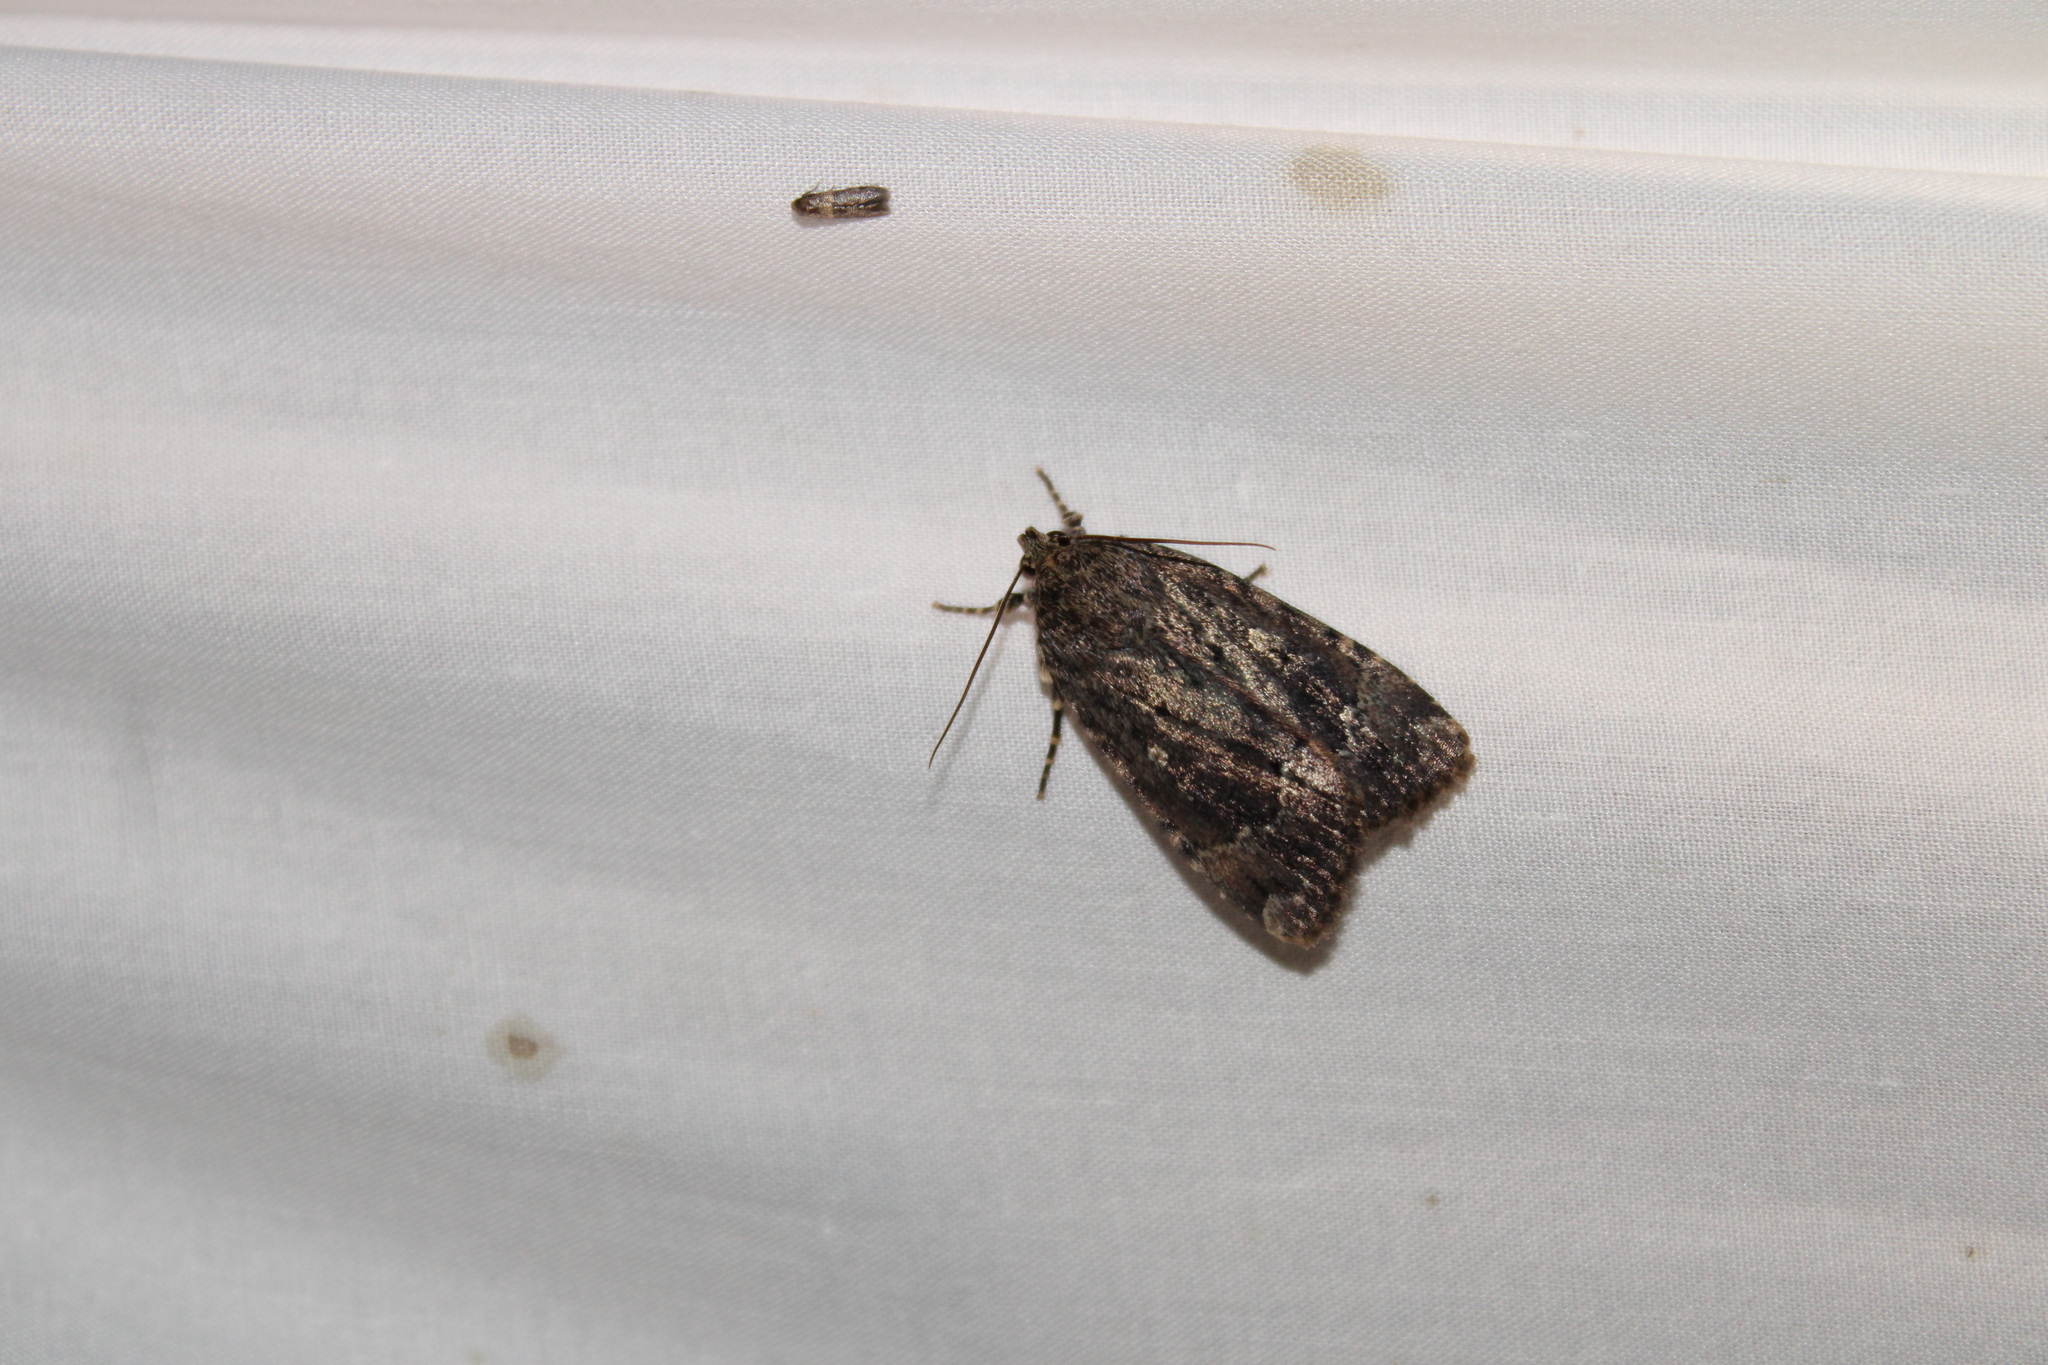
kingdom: Animalia
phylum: Arthropoda
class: Insecta
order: Lepidoptera
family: Noctuidae
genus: Amphipyra
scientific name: Amphipyra pyramidoides
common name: American copper underwing
